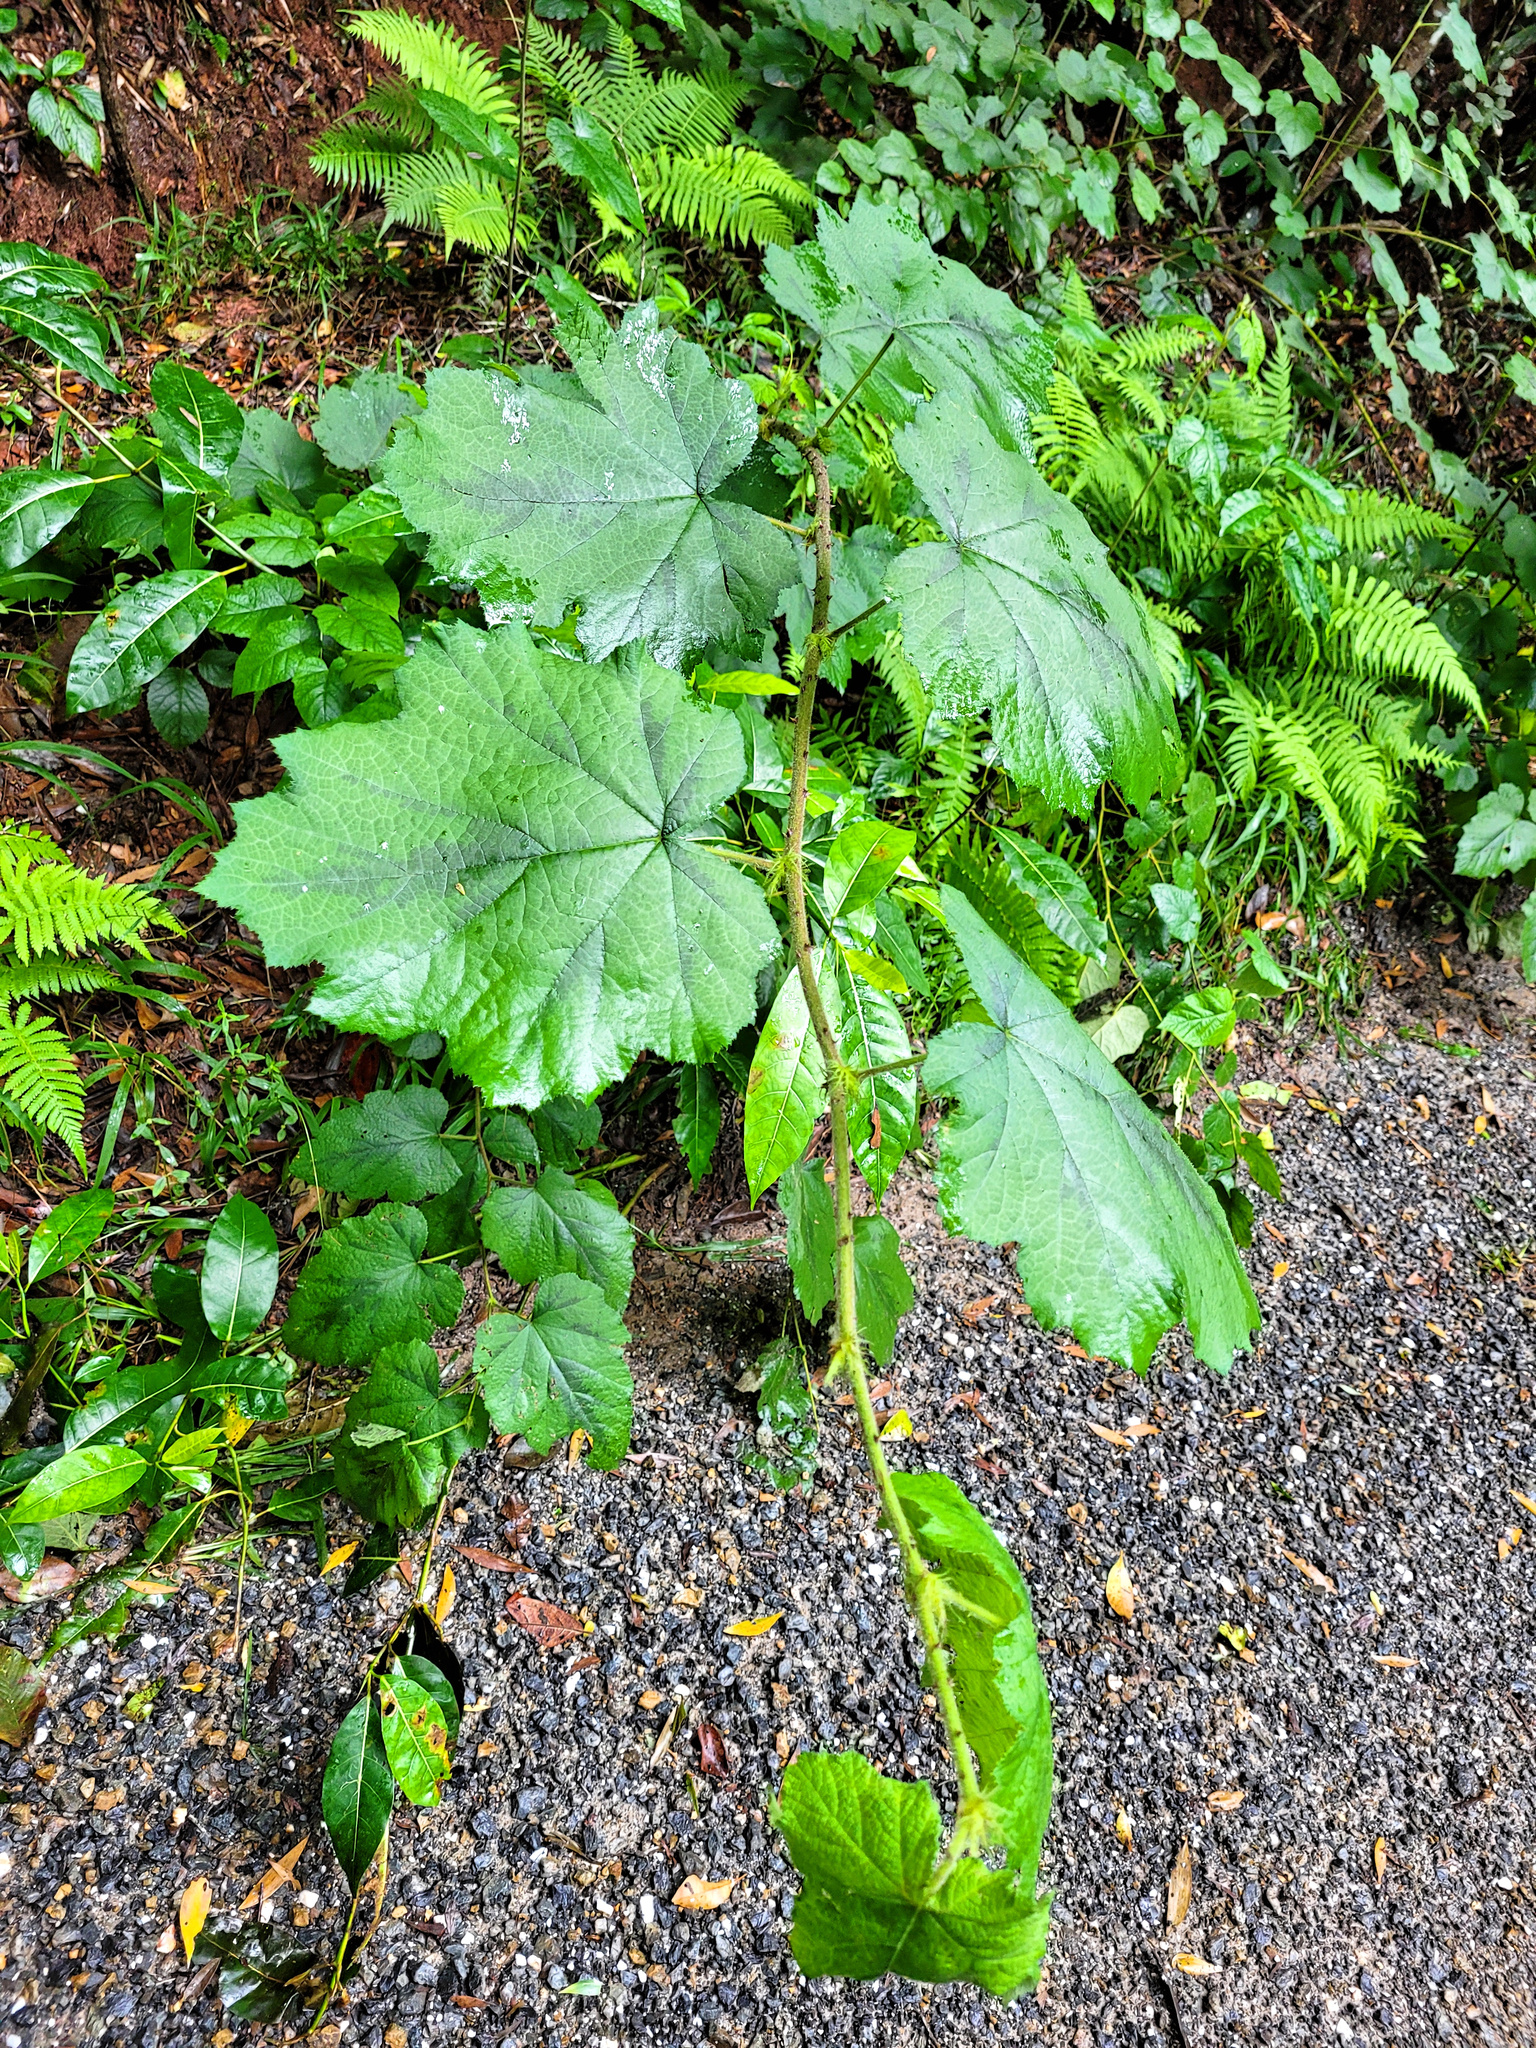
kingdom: Plantae
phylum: Tracheophyta
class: Magnoliopsida
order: Rosales
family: Rosaceae
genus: Rubus
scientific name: Rubus alceifolius
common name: Giant bramble
